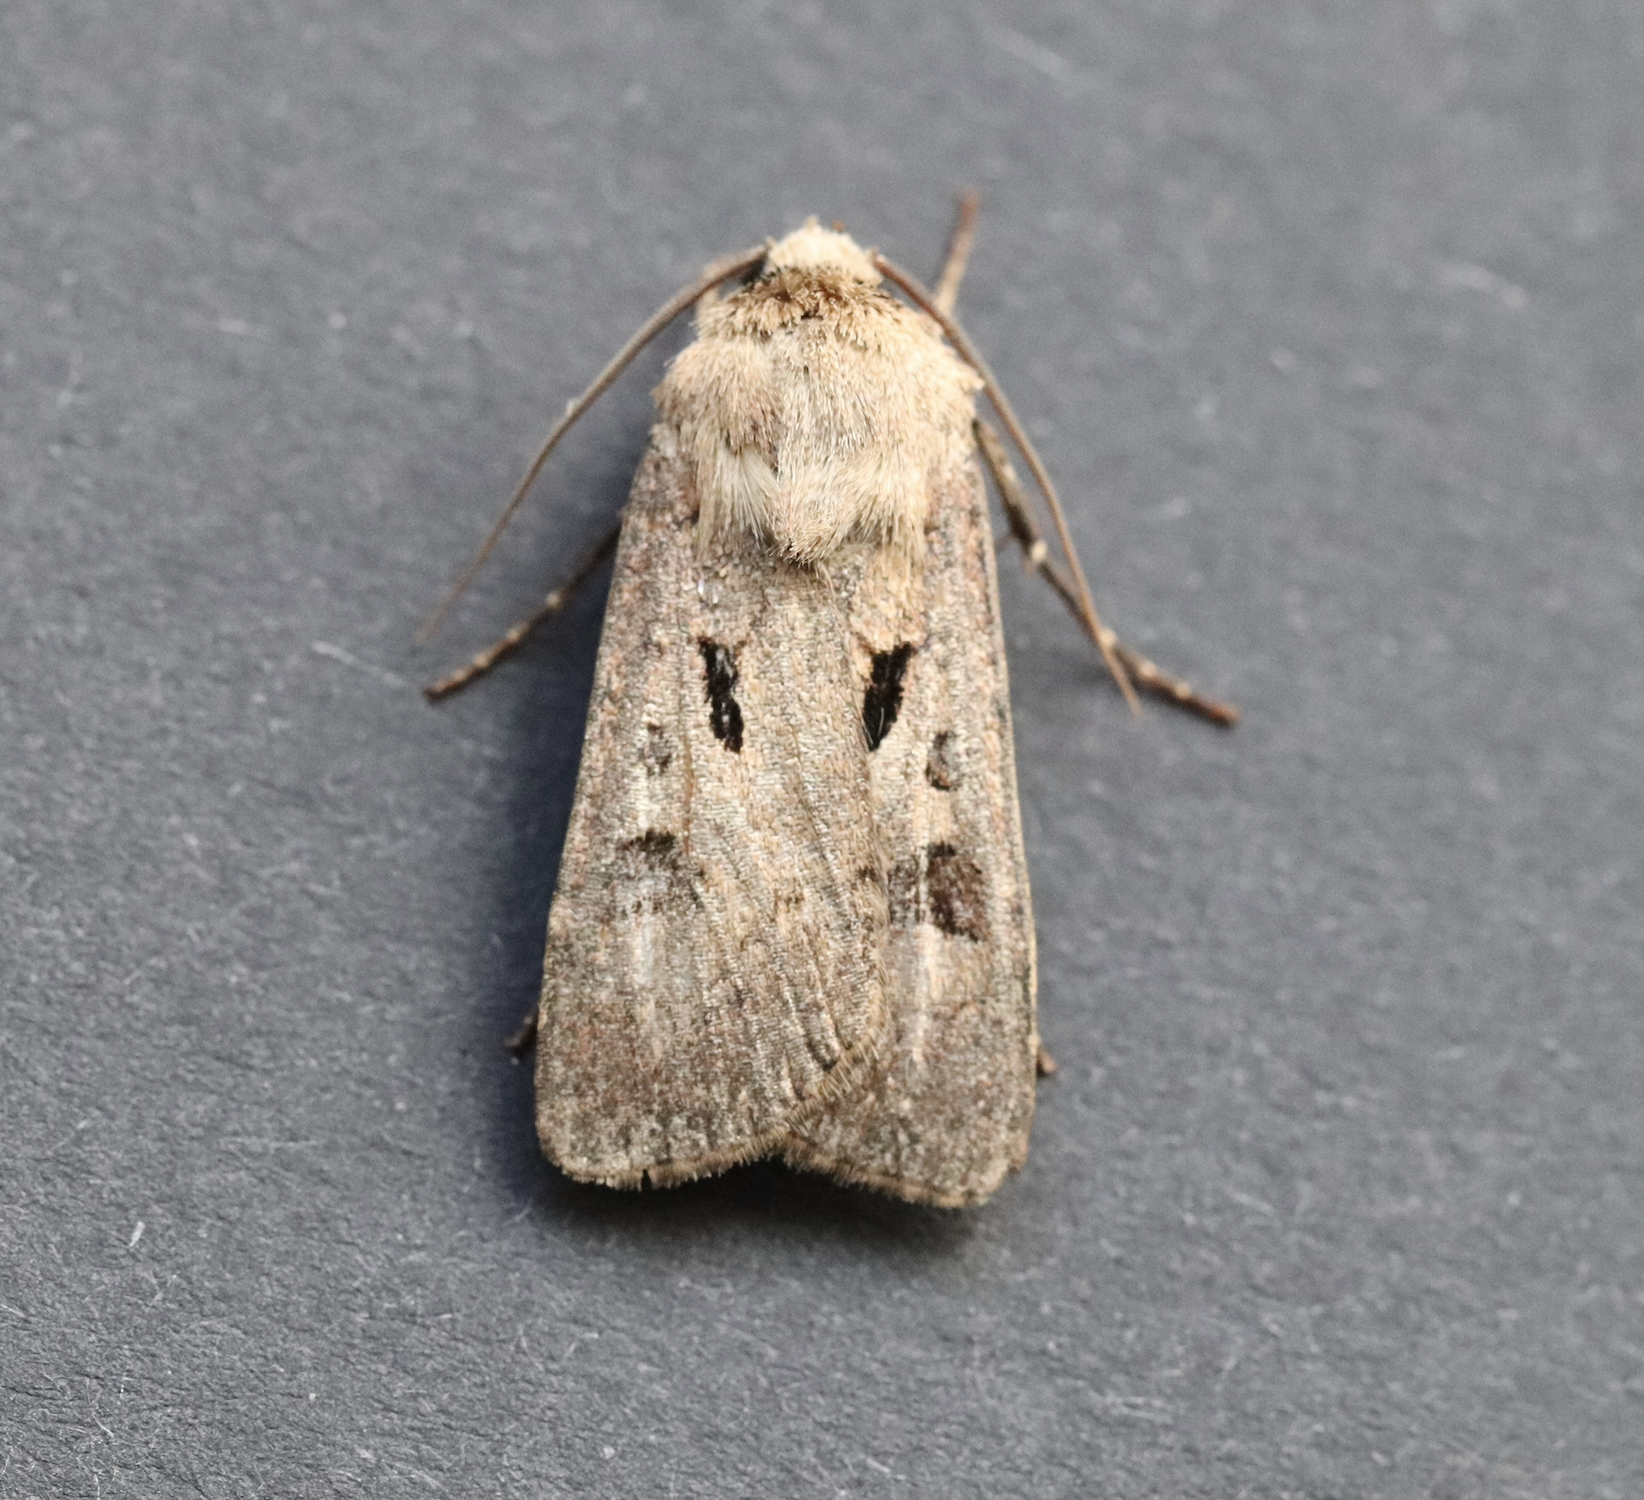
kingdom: Animalia
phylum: Arthropoda
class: Insecta
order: Lepidoptera
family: Noctuidae
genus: Agrotis
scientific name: Agrotis exclamationis
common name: Heart and dart
